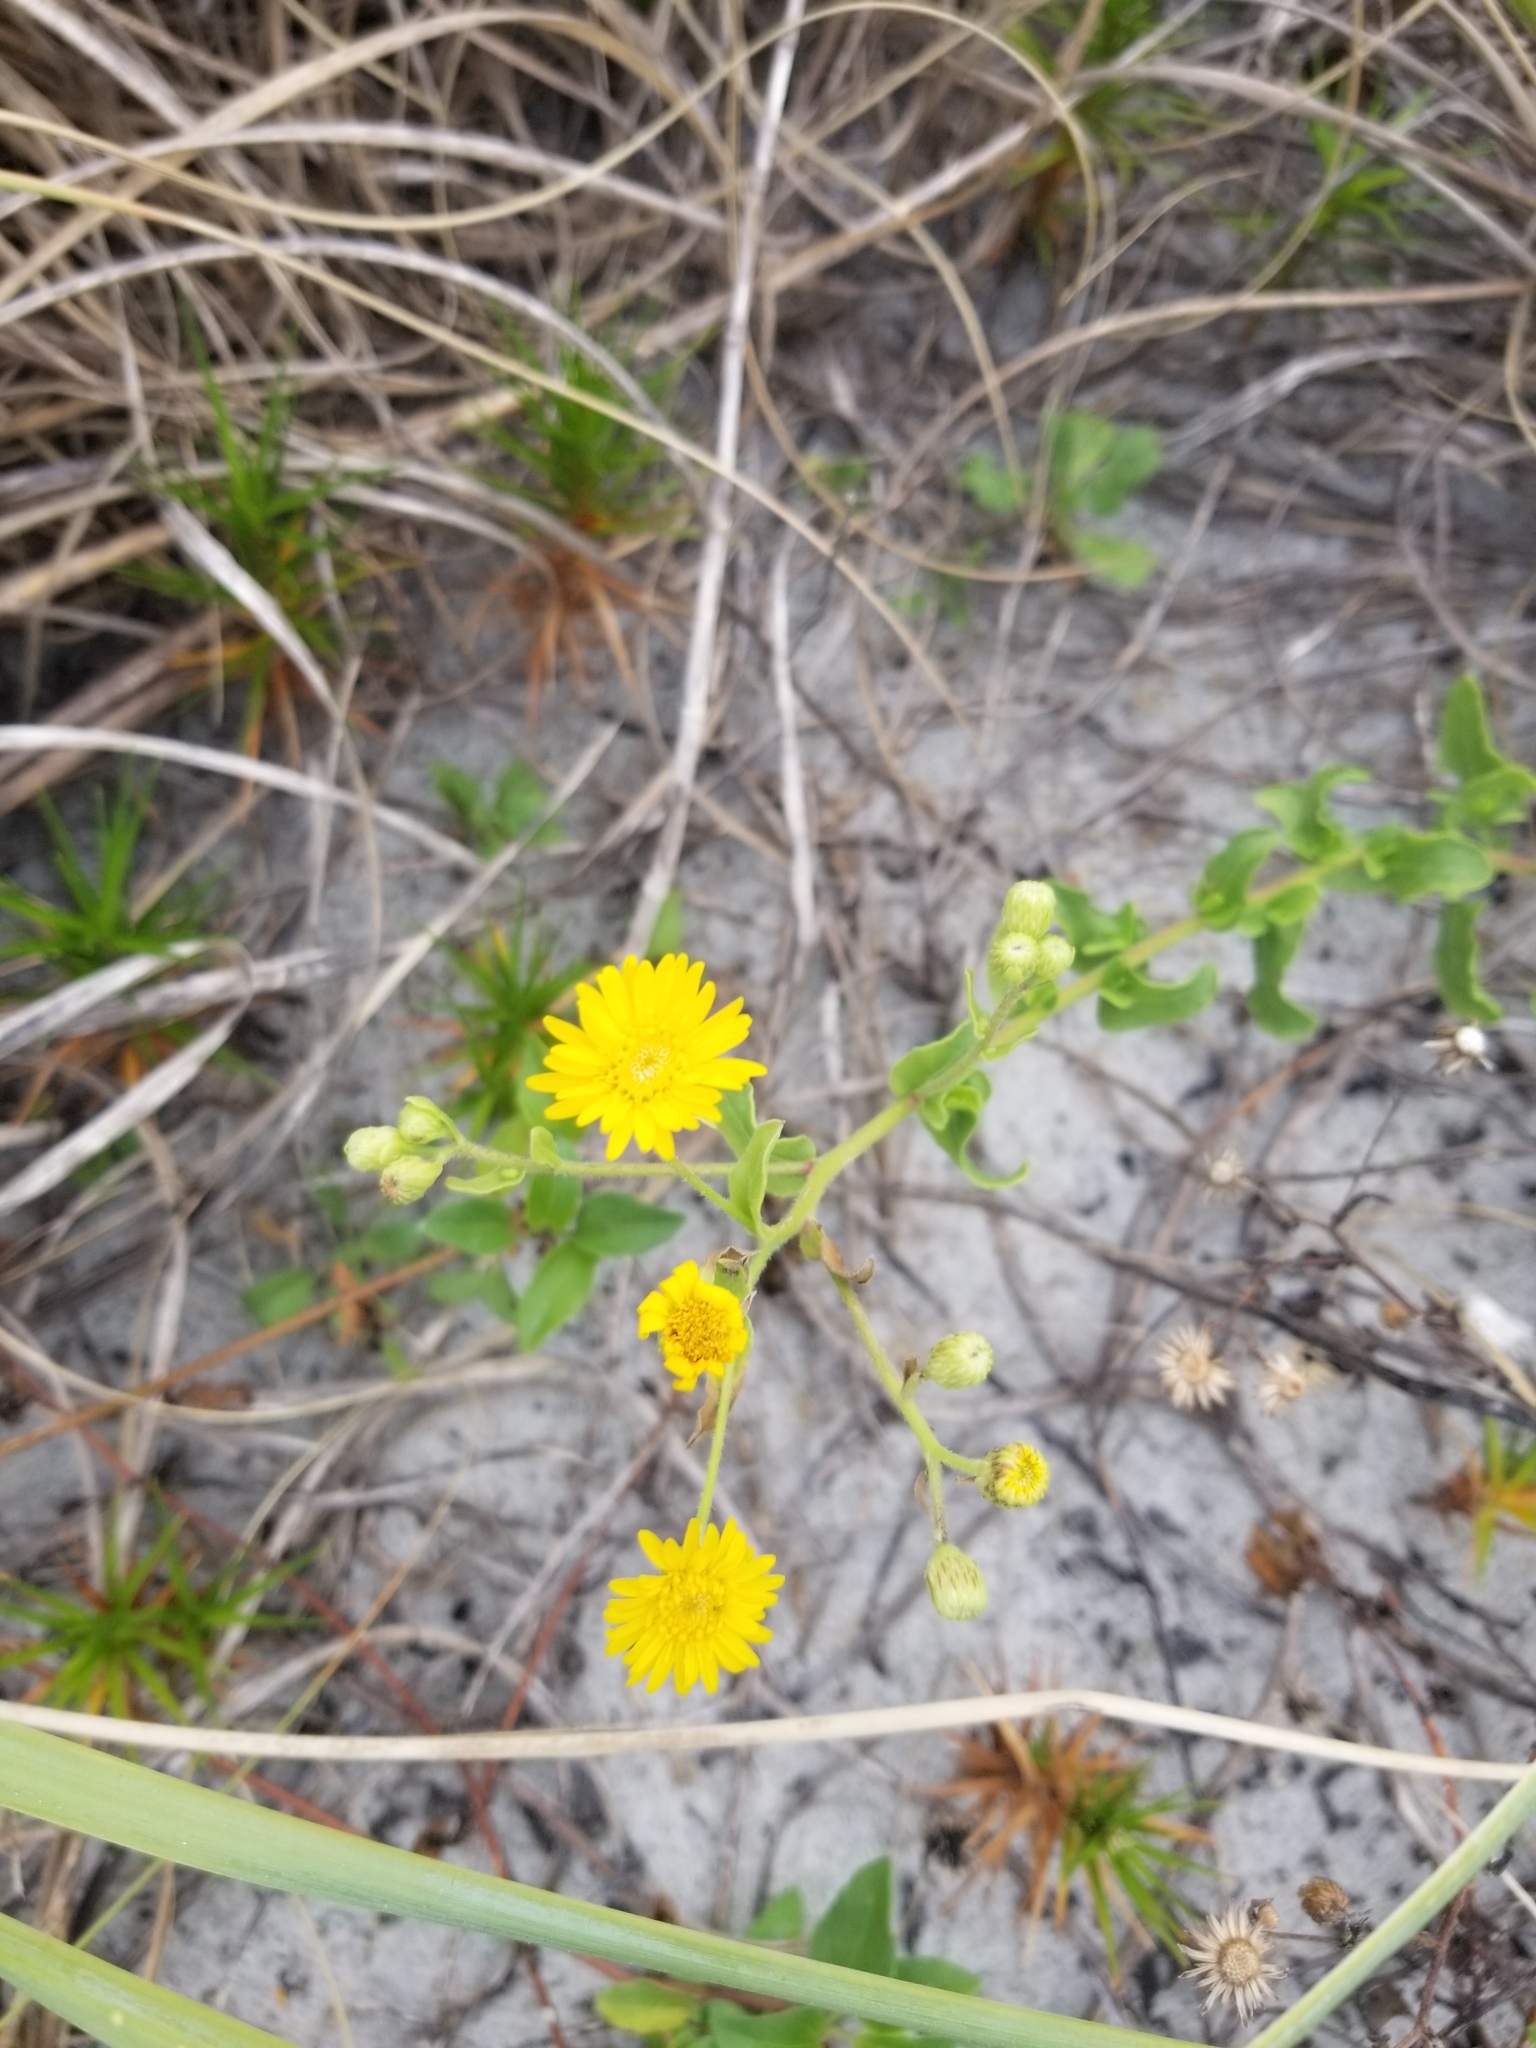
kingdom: Plantae
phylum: Tracheophyta
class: Magnoliopsida
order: Asterales
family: Asteraceae
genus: Heterotheca
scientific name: Heterotheca subaxillaris
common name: Camphorweed
